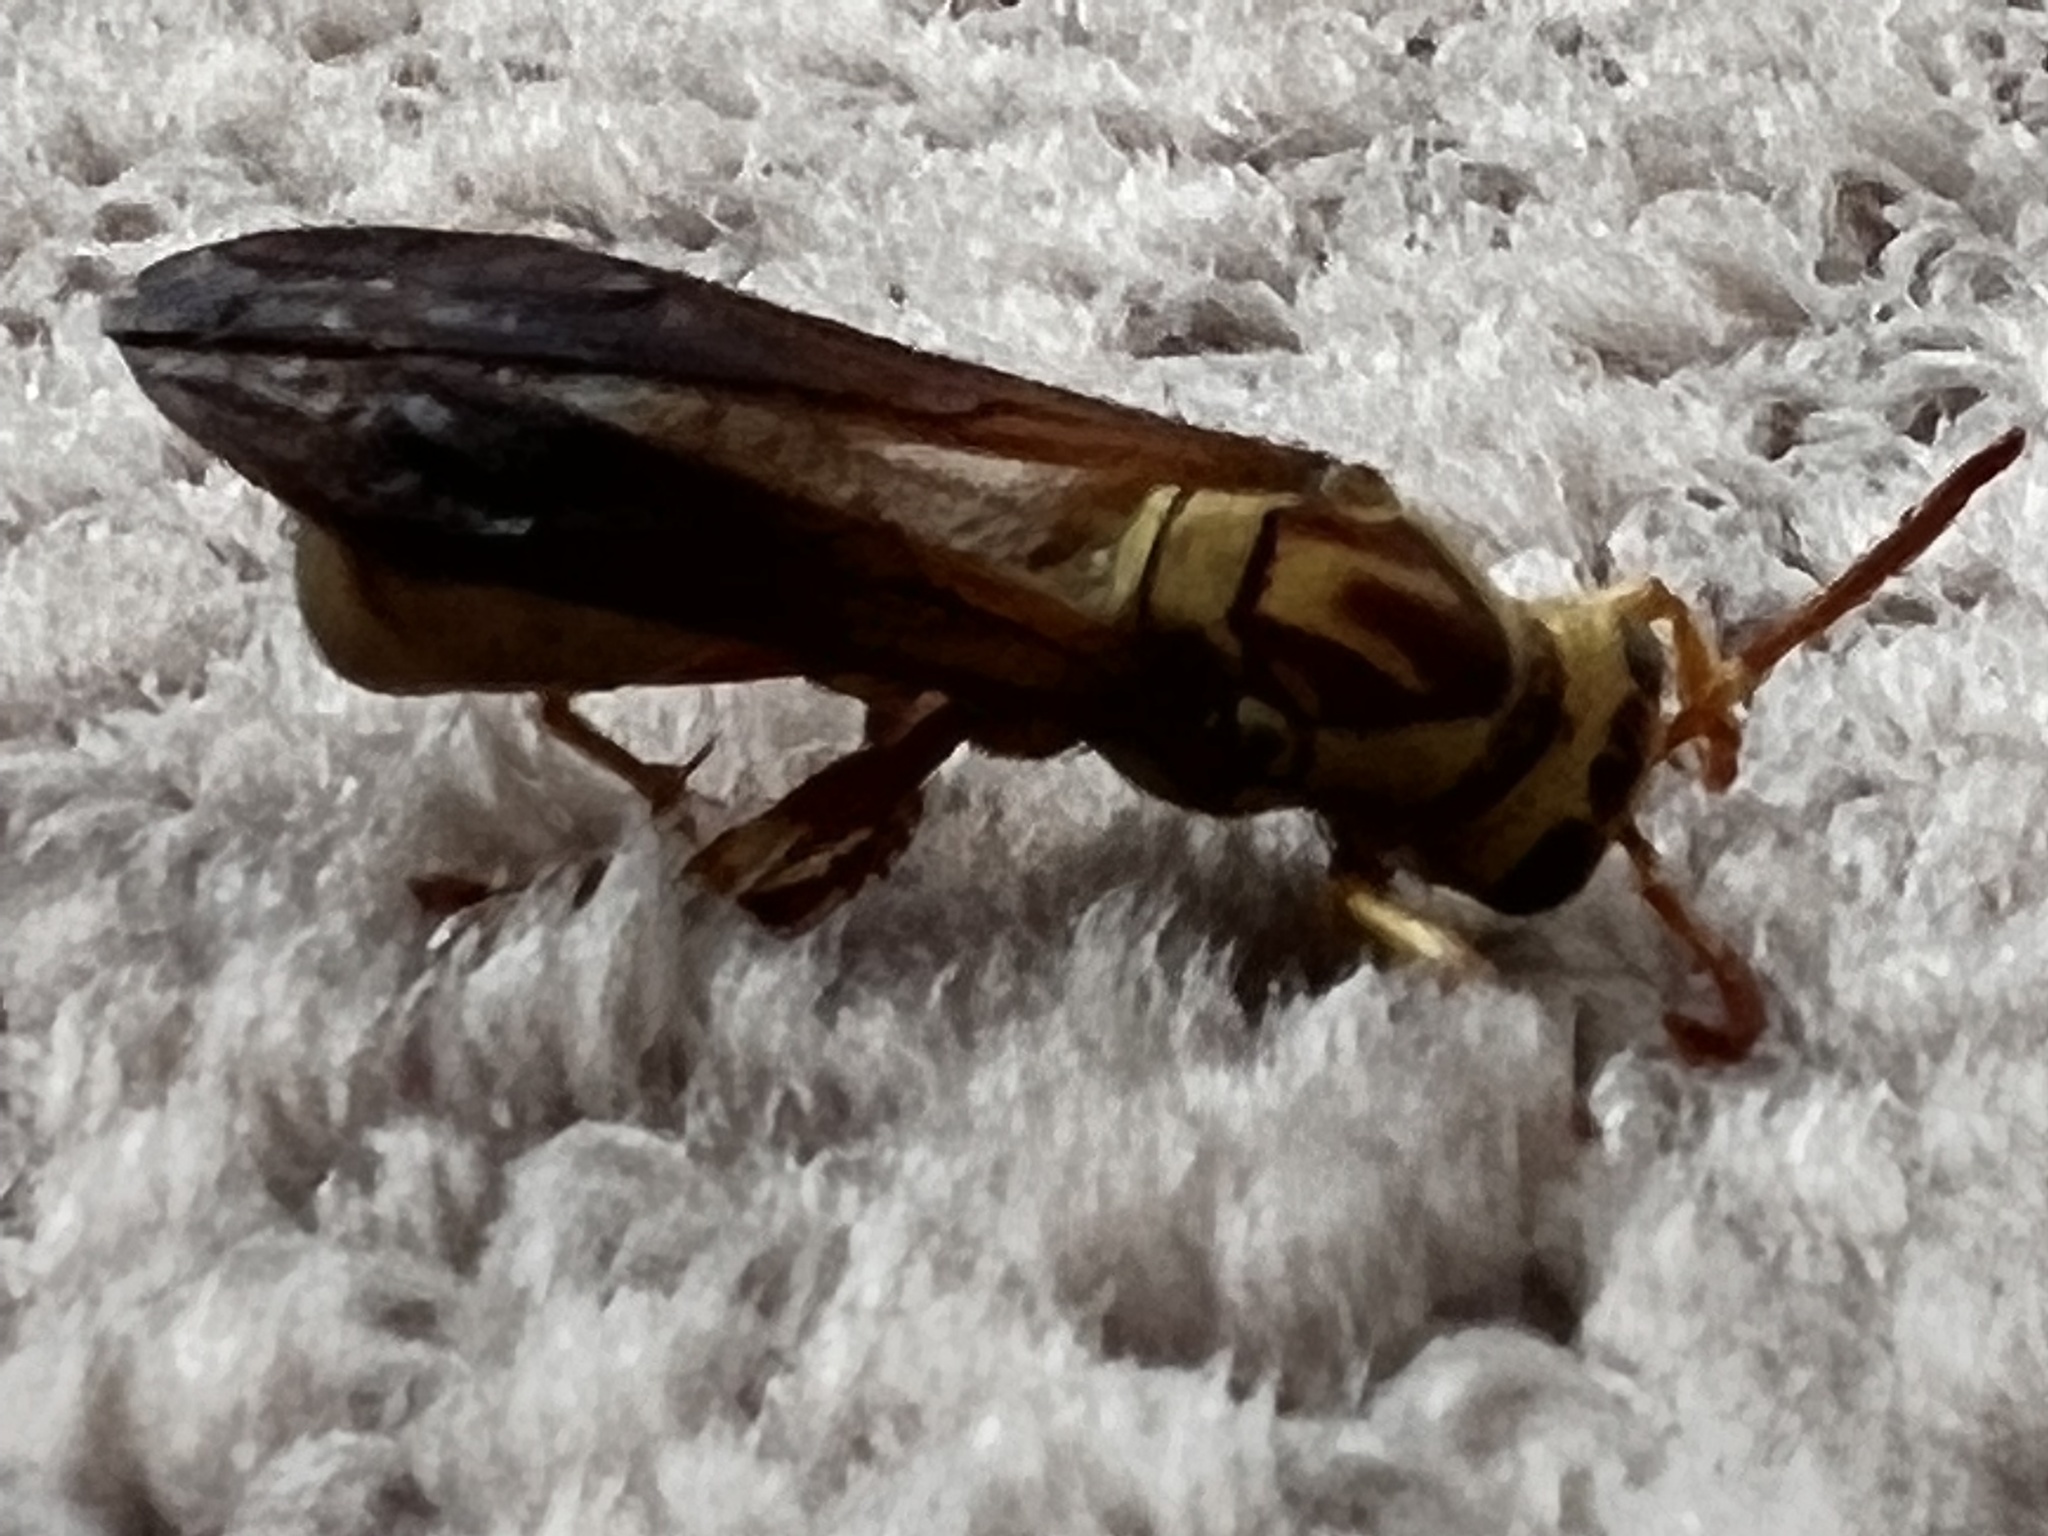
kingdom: Animalia
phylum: Arthropoda
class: Insecta
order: Hymenoptera
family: Eumenidae
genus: Polistes
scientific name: Polistes aurifer
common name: Paper wasp
